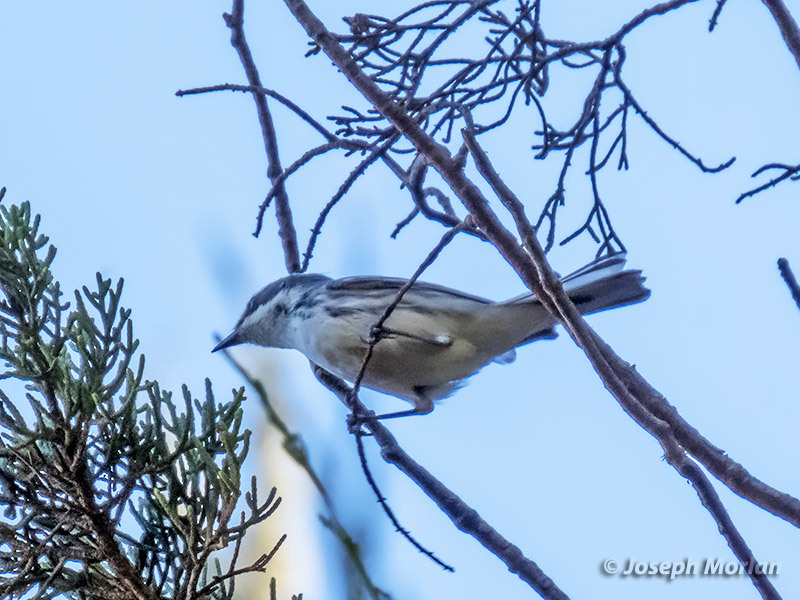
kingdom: Animalia
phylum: Chordata
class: Aves
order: Passeriformes
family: Parulidae
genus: Setophaga
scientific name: Setophaga nigrescens
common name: Black-throated gray warbler
